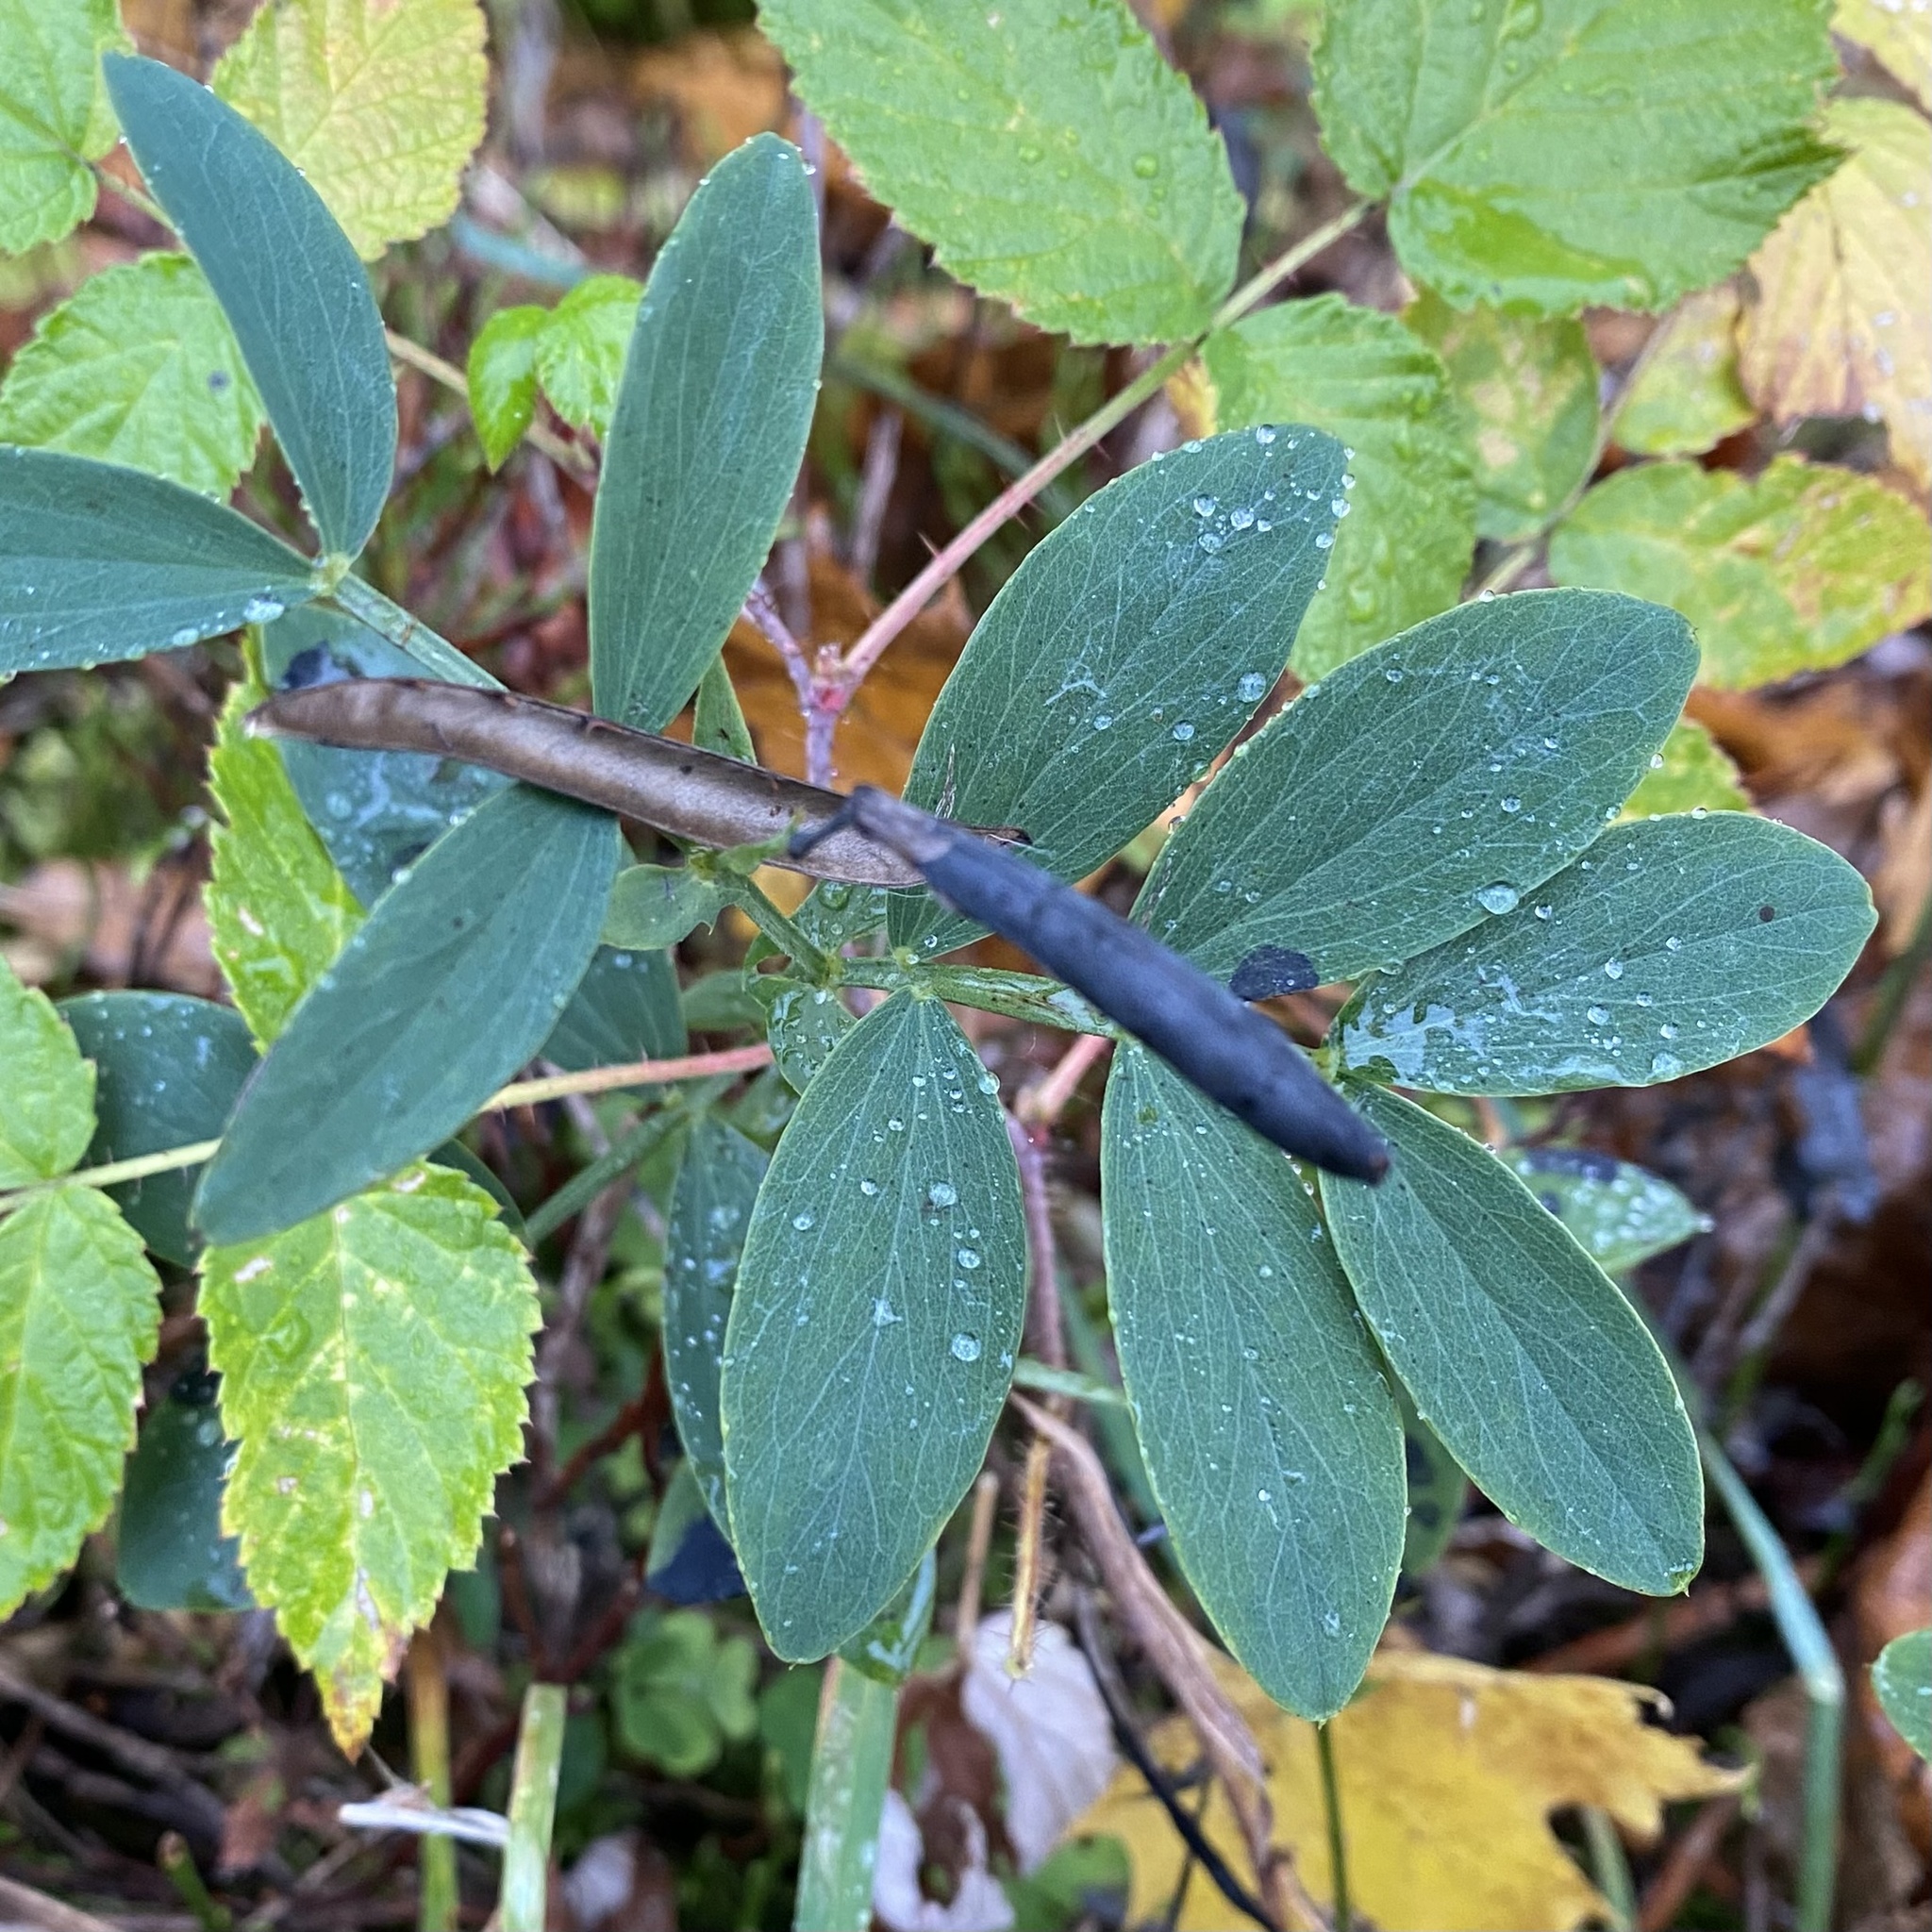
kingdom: Plantae
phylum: Tracheophyta
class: Magnoliopsida
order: Fabales
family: Fabaceae
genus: Lathyrus
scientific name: Lathyrus linifolius
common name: Bitter-vetch
